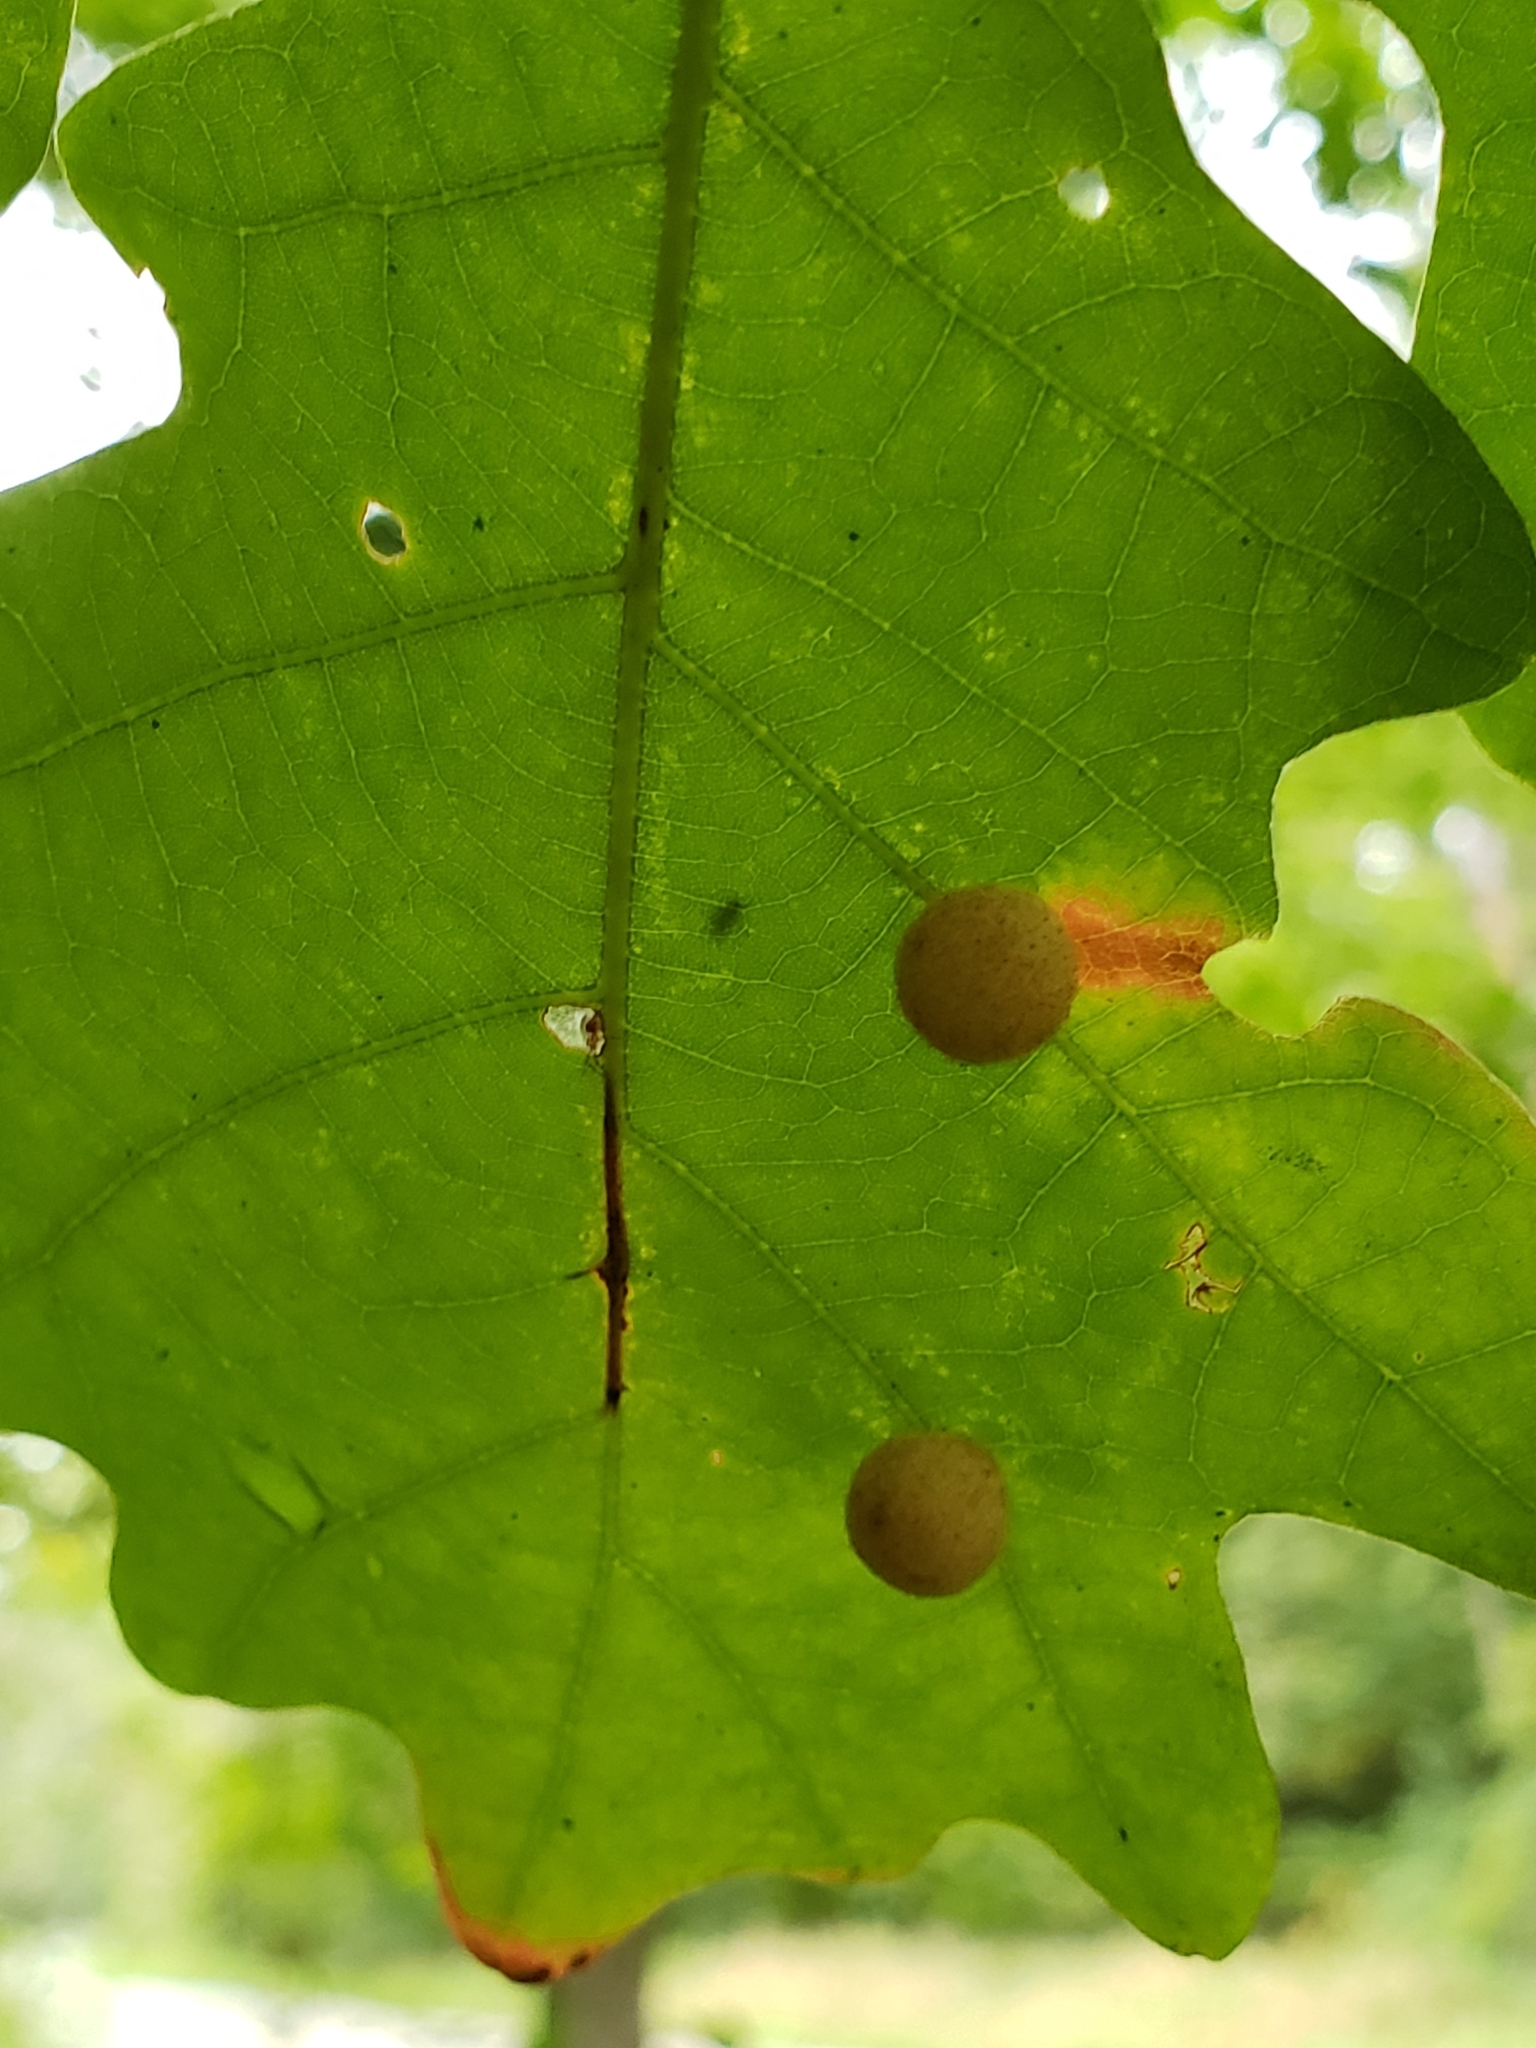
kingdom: Animalia
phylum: Arthropoda
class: Insecta
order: Hymenoptera
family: Cynipidae
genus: Philonix
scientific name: Philonix fulvicollis
